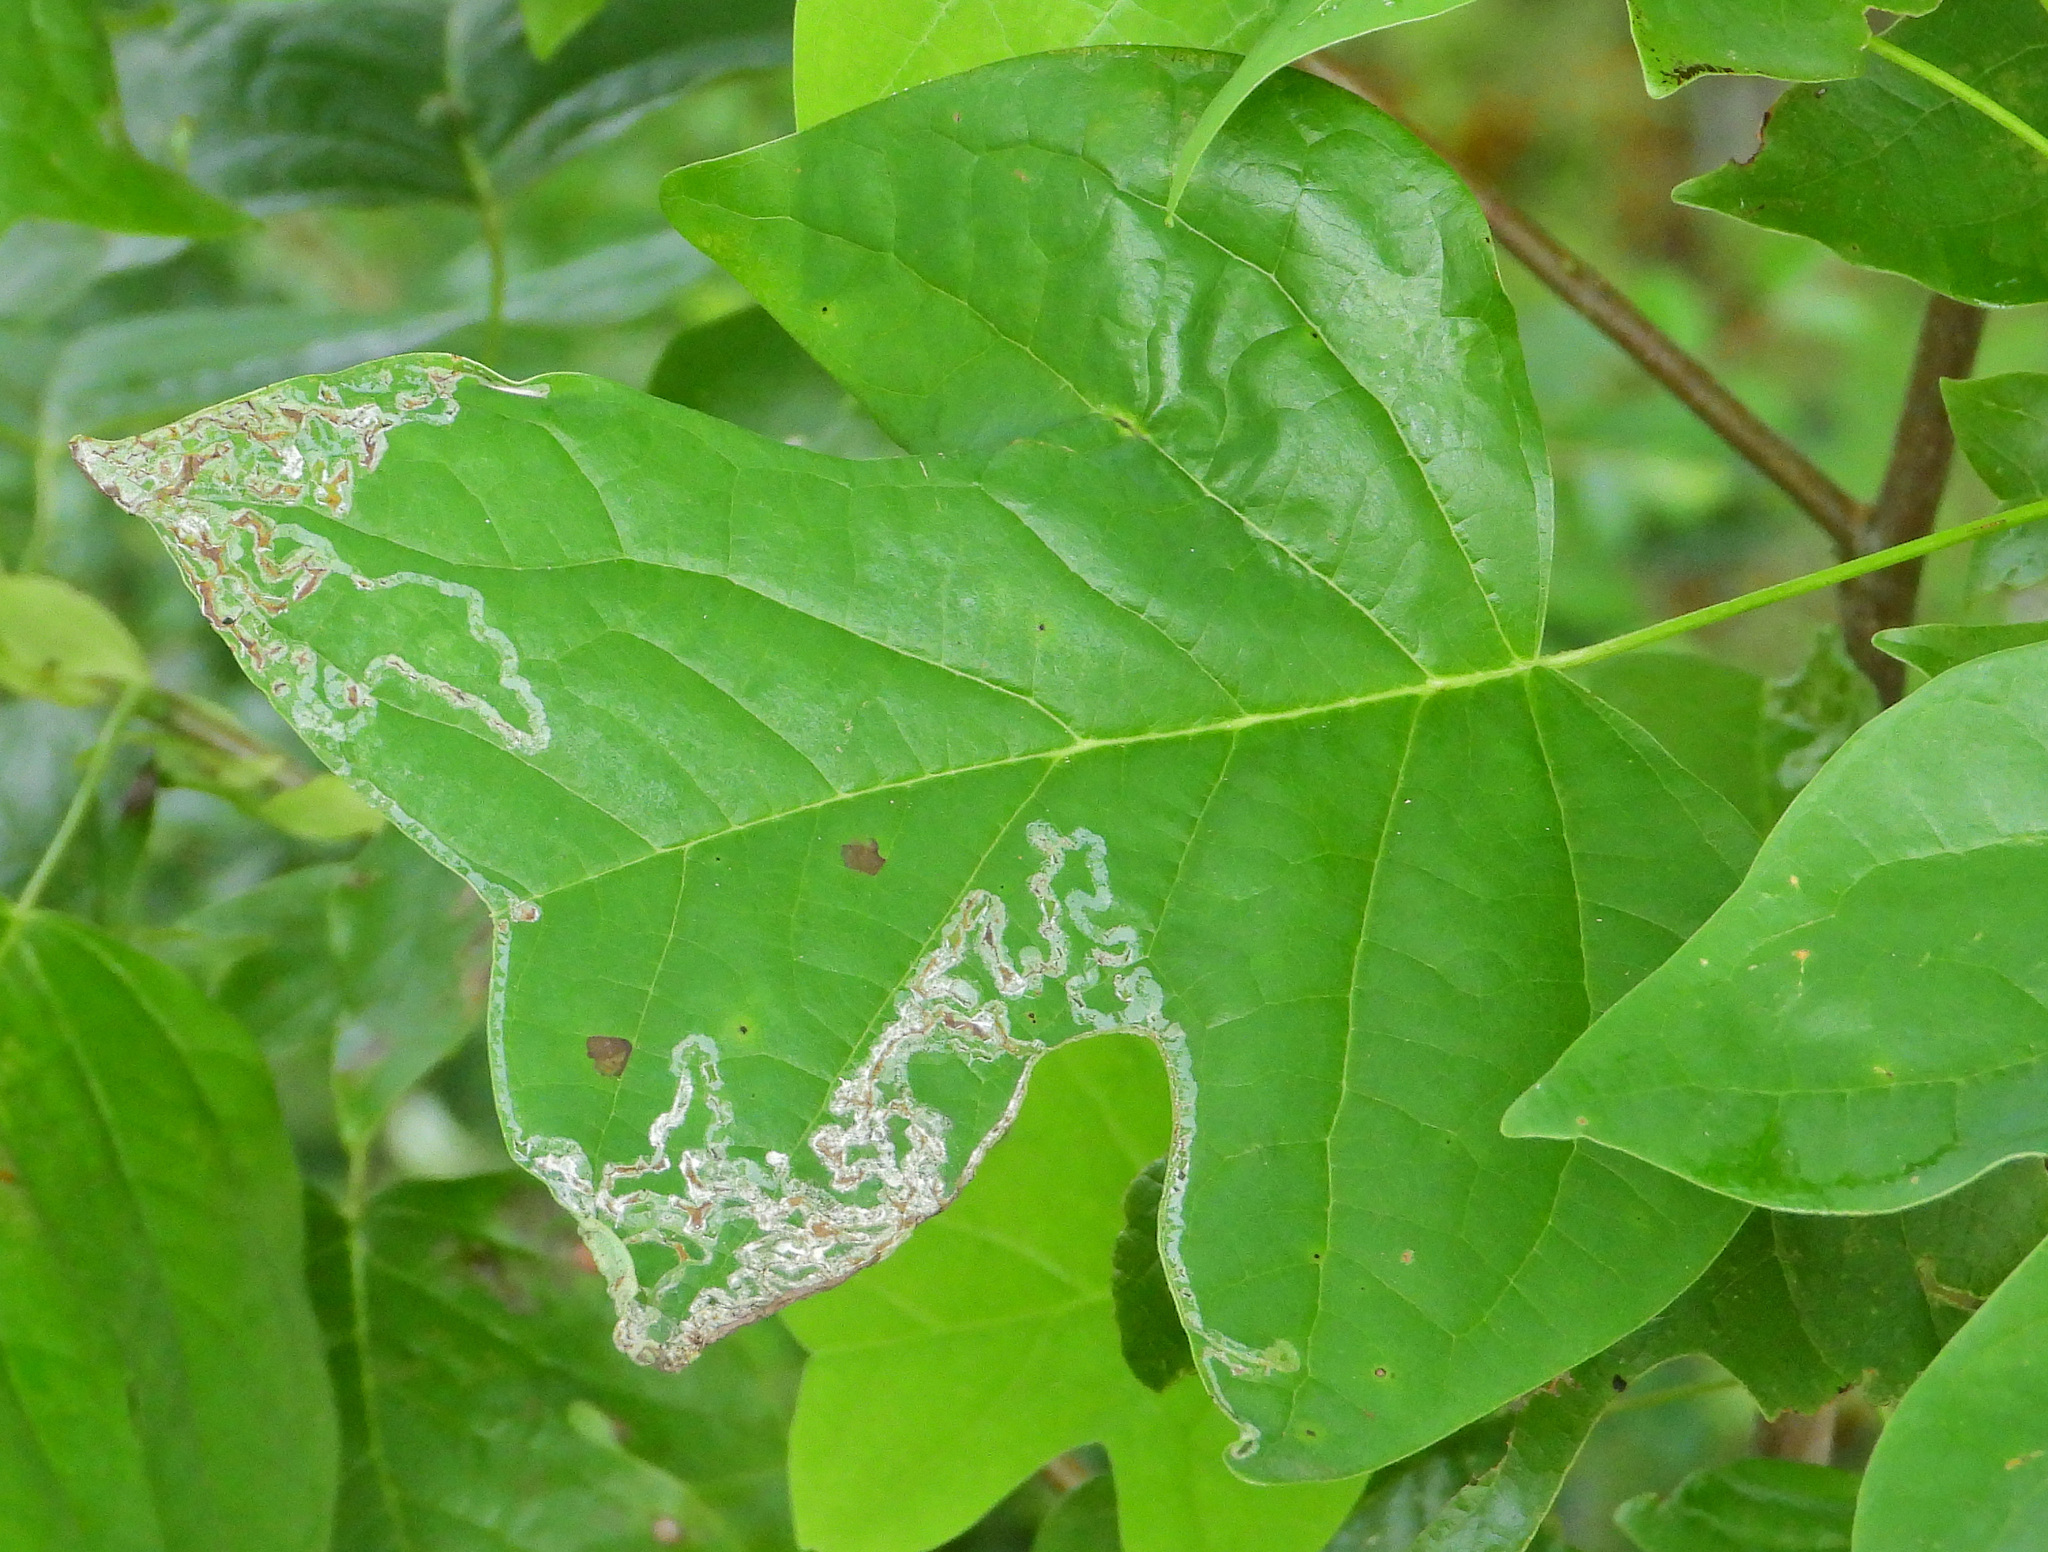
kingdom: Animalia
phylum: Arthropoda
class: Insecta
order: Lepidoptera
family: Gracillariidae
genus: Phyllocnistis
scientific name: Phyllocnistis liriodendronella
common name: Tulip tree leaf miner
